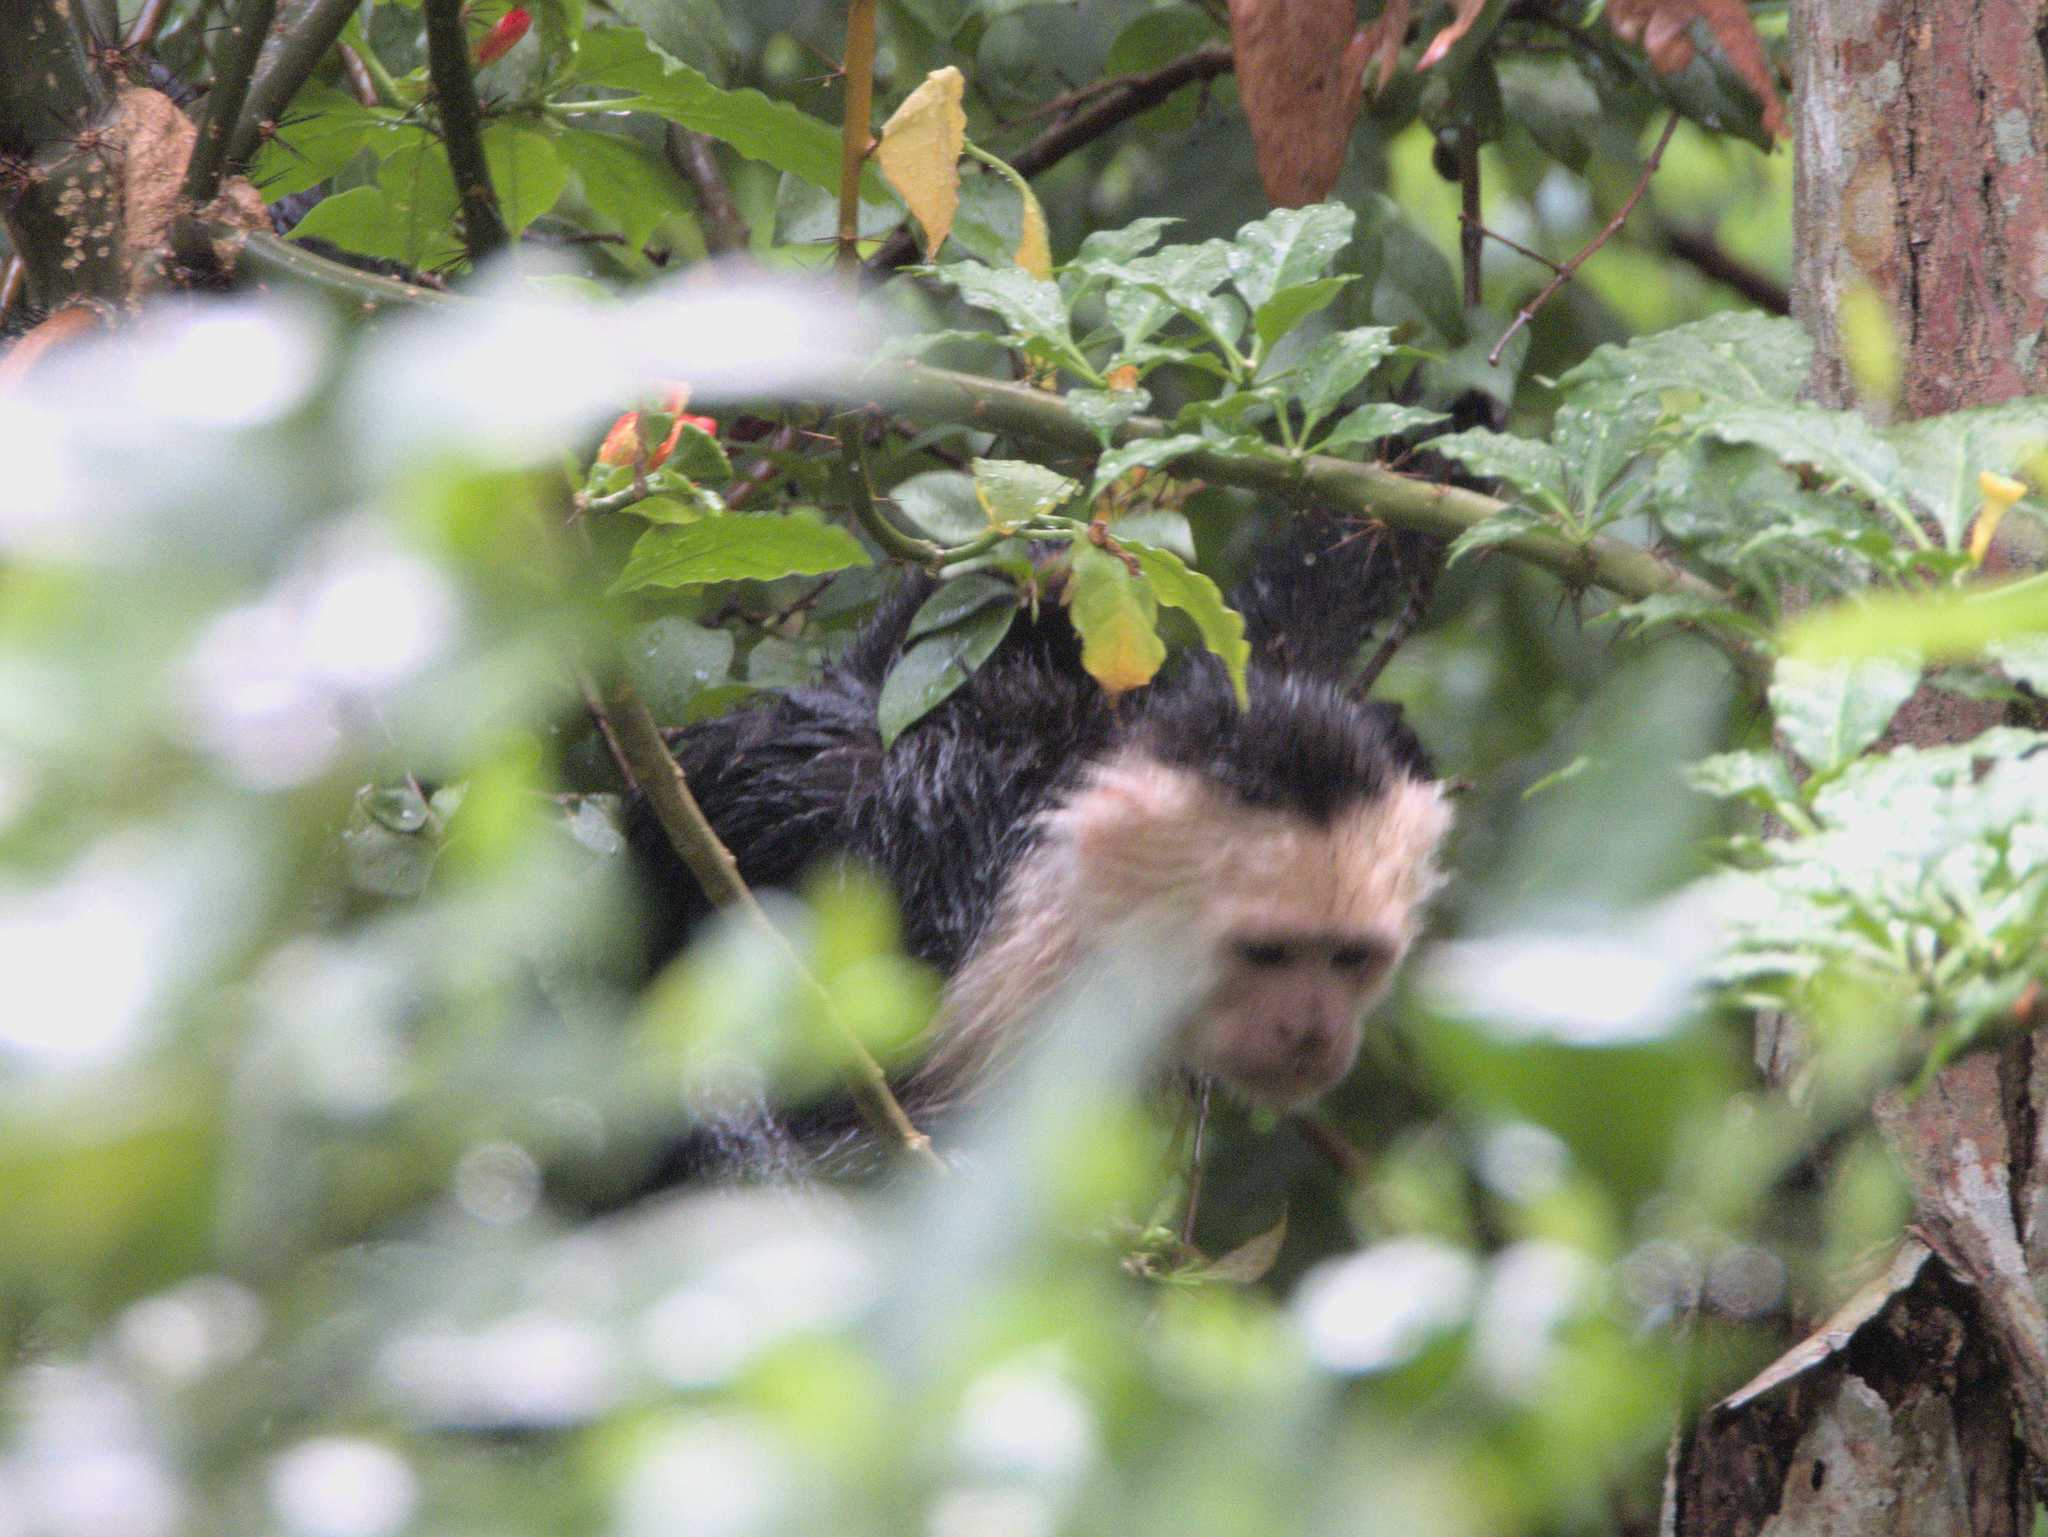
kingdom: Animalia
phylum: Chordata
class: Mammalia
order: Primates
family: Cebidae
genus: Cebus
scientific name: Cebus imitator
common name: Panamanian white-faced capuchin
